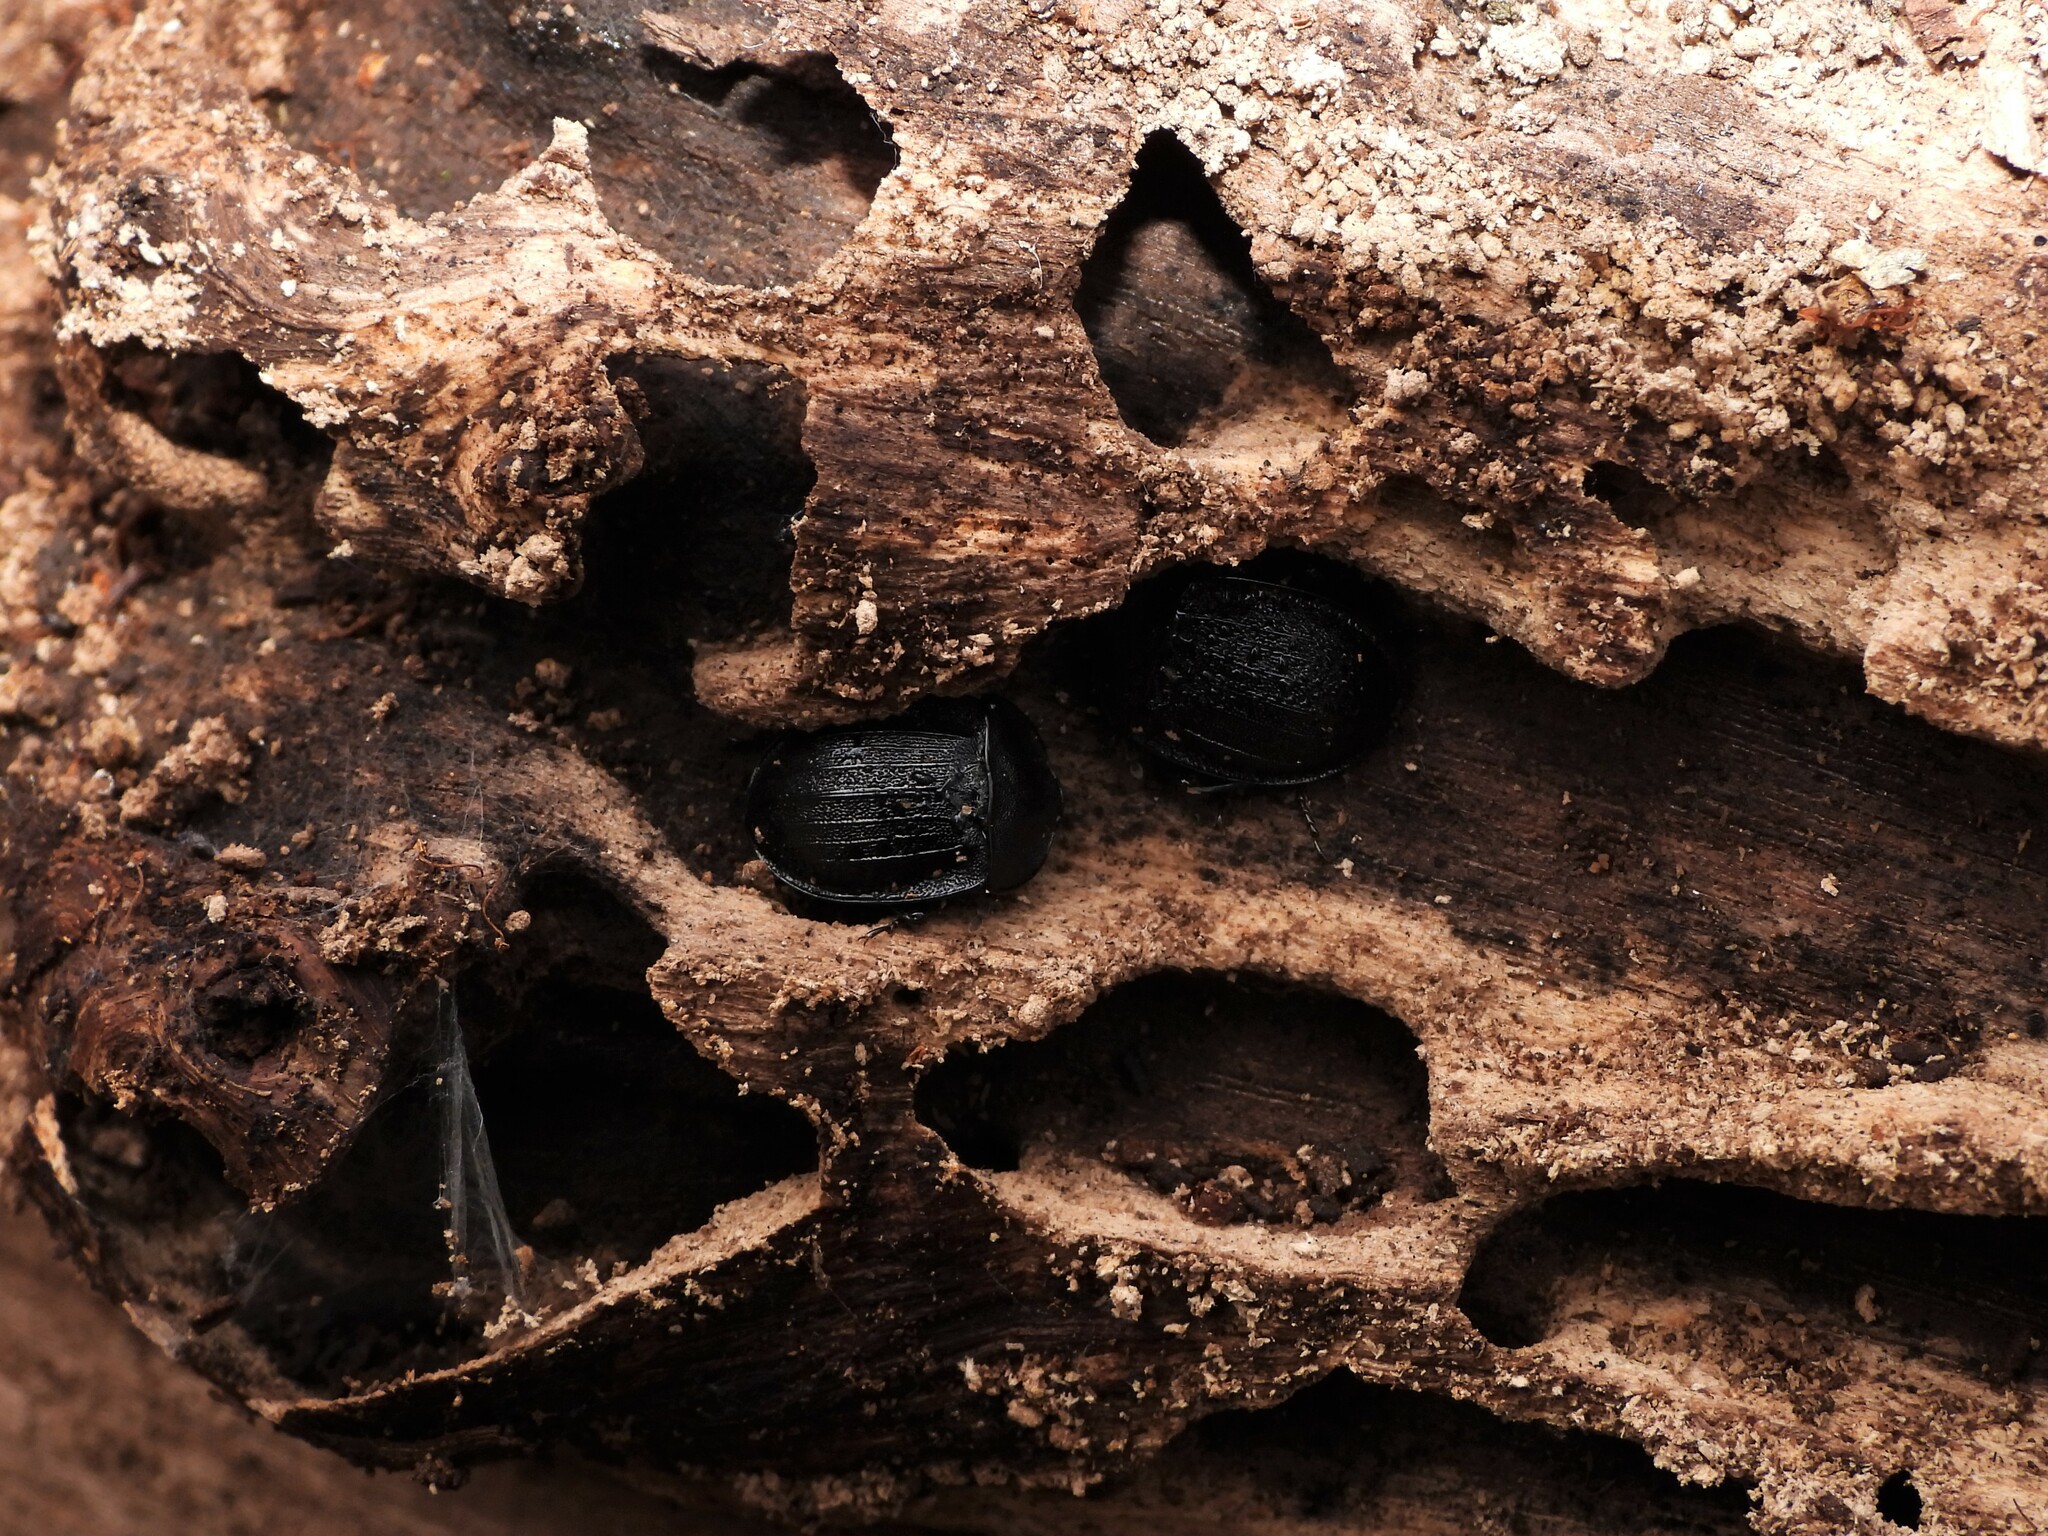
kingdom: Animalia
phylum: Arthropoda
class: Insecta
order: Coleoptera
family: Staphylinidae
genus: Silpha
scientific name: Silpha atrata
